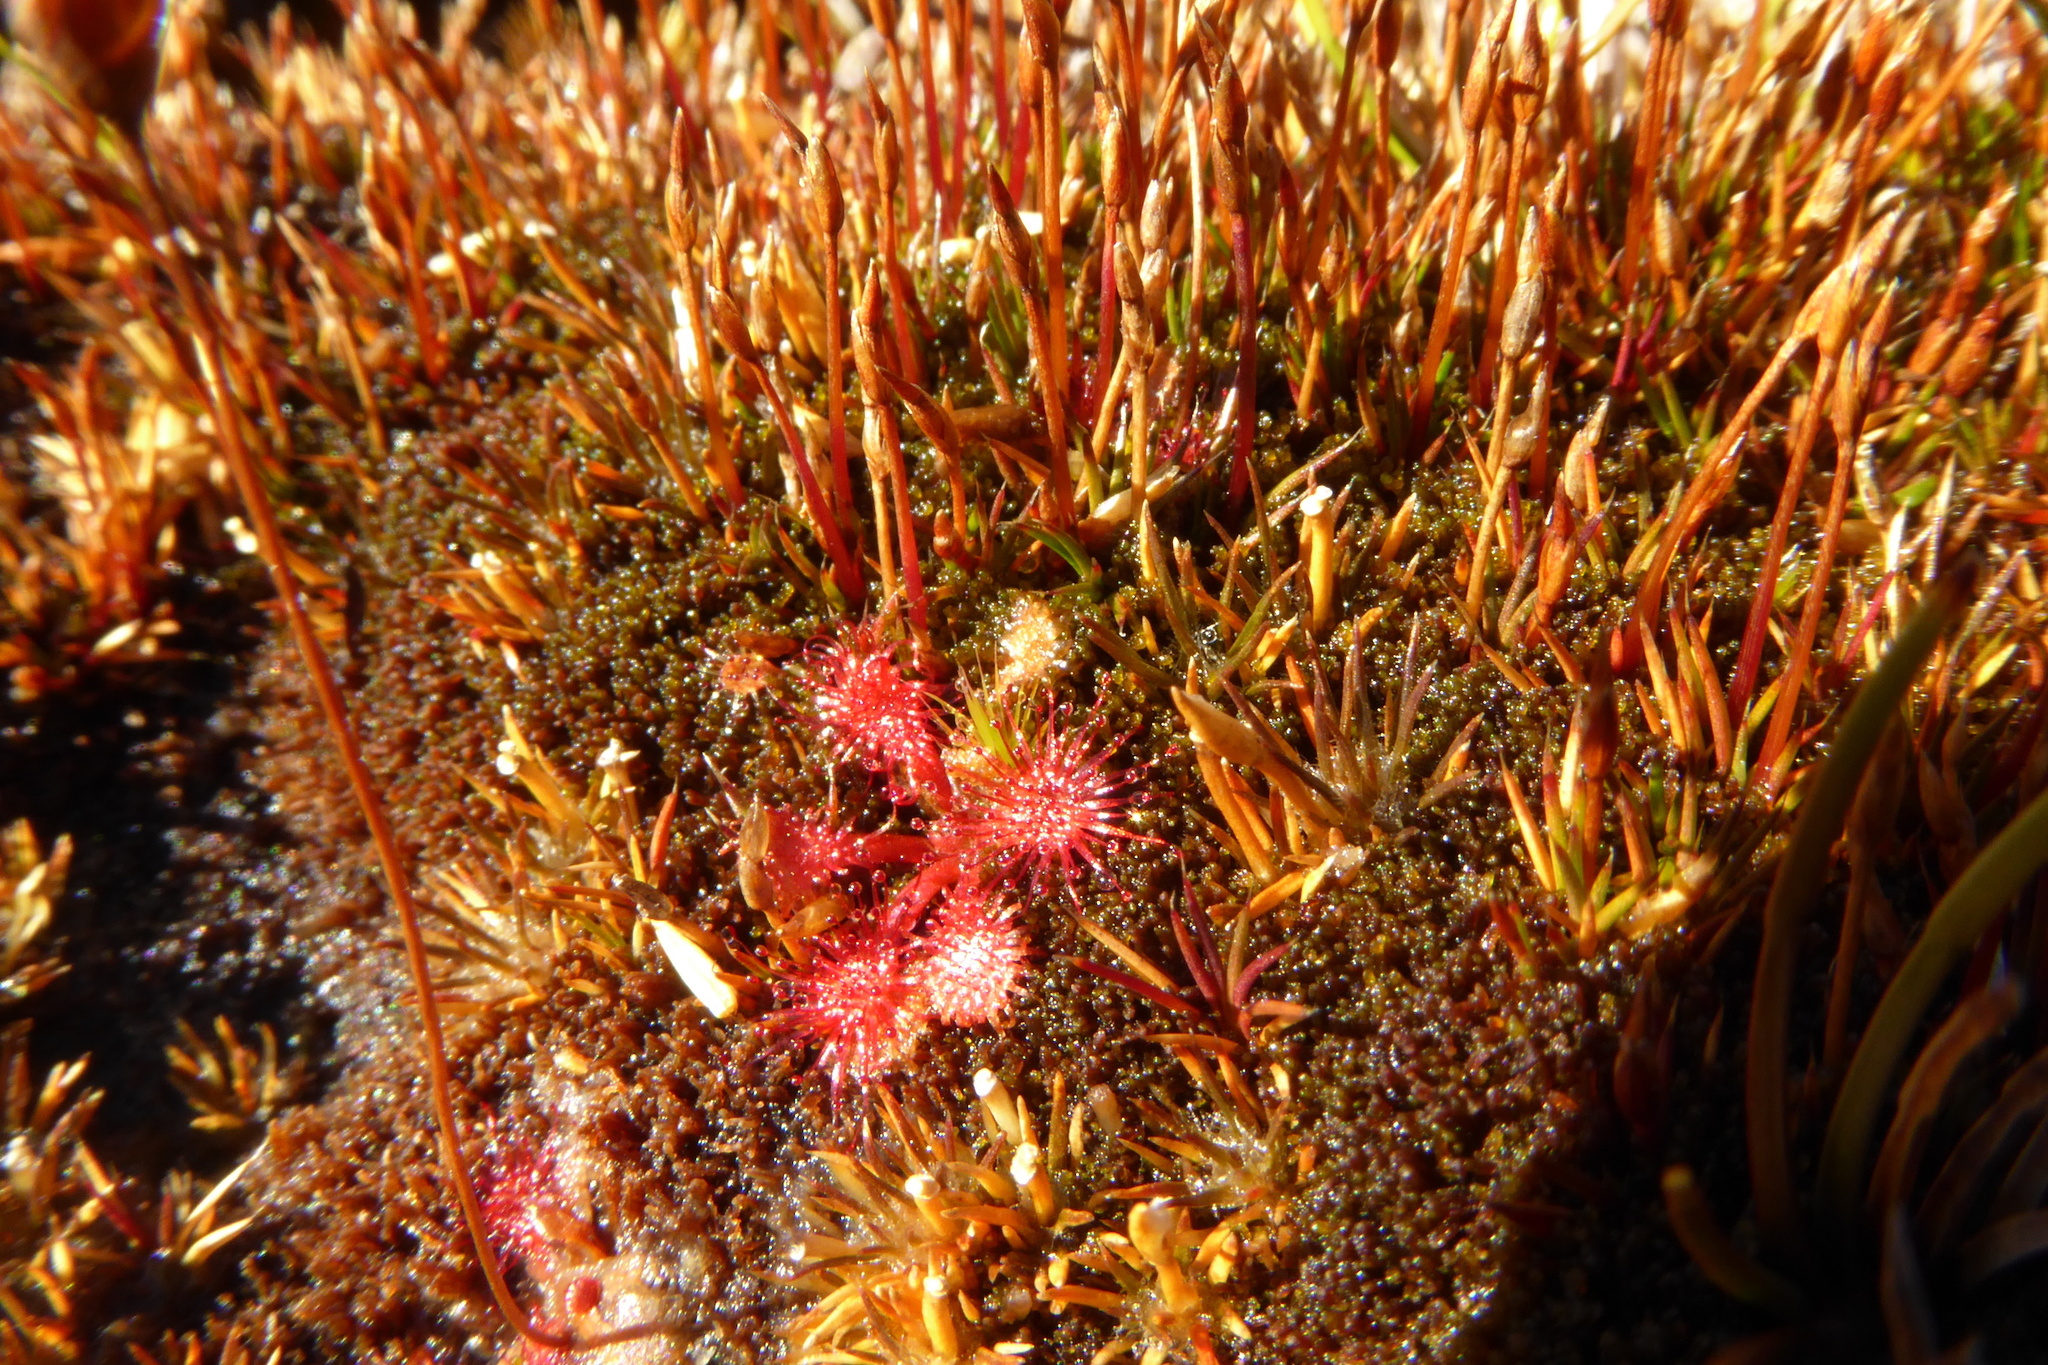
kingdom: Plantae
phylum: Tracheophyta
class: Magnoliopsida
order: Caryophyllales
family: Droseraceae
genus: Drosera
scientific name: Drosera spatulata
